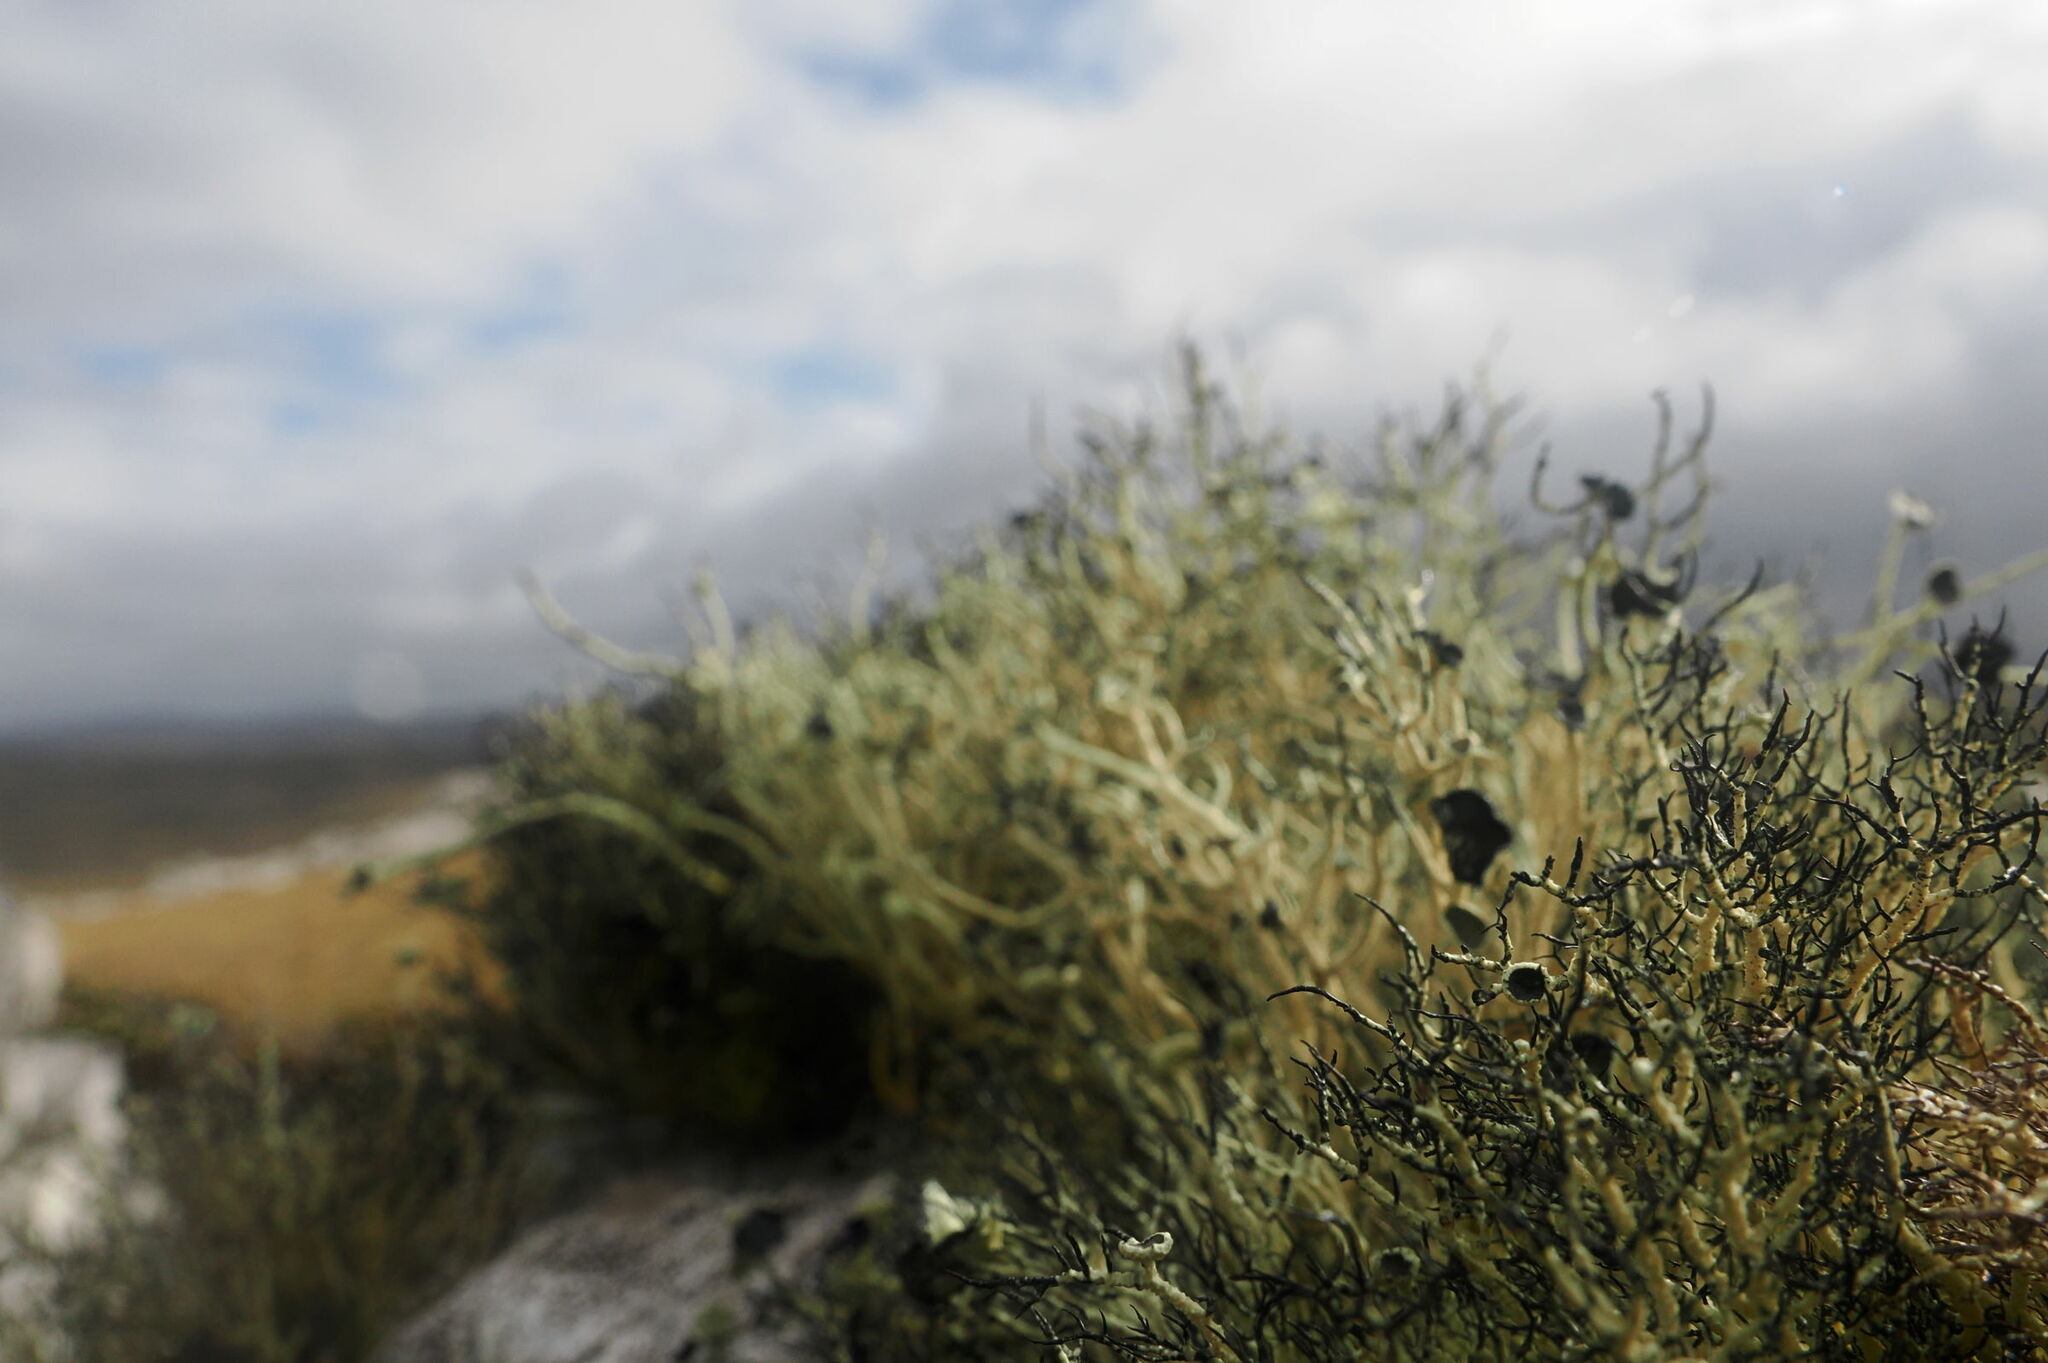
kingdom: Fungi
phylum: Ascomycota
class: Lecanoromycetes
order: Lecanorales
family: Parmeliaceae
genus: Usnea
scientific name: Usnea aurantiacoatra
